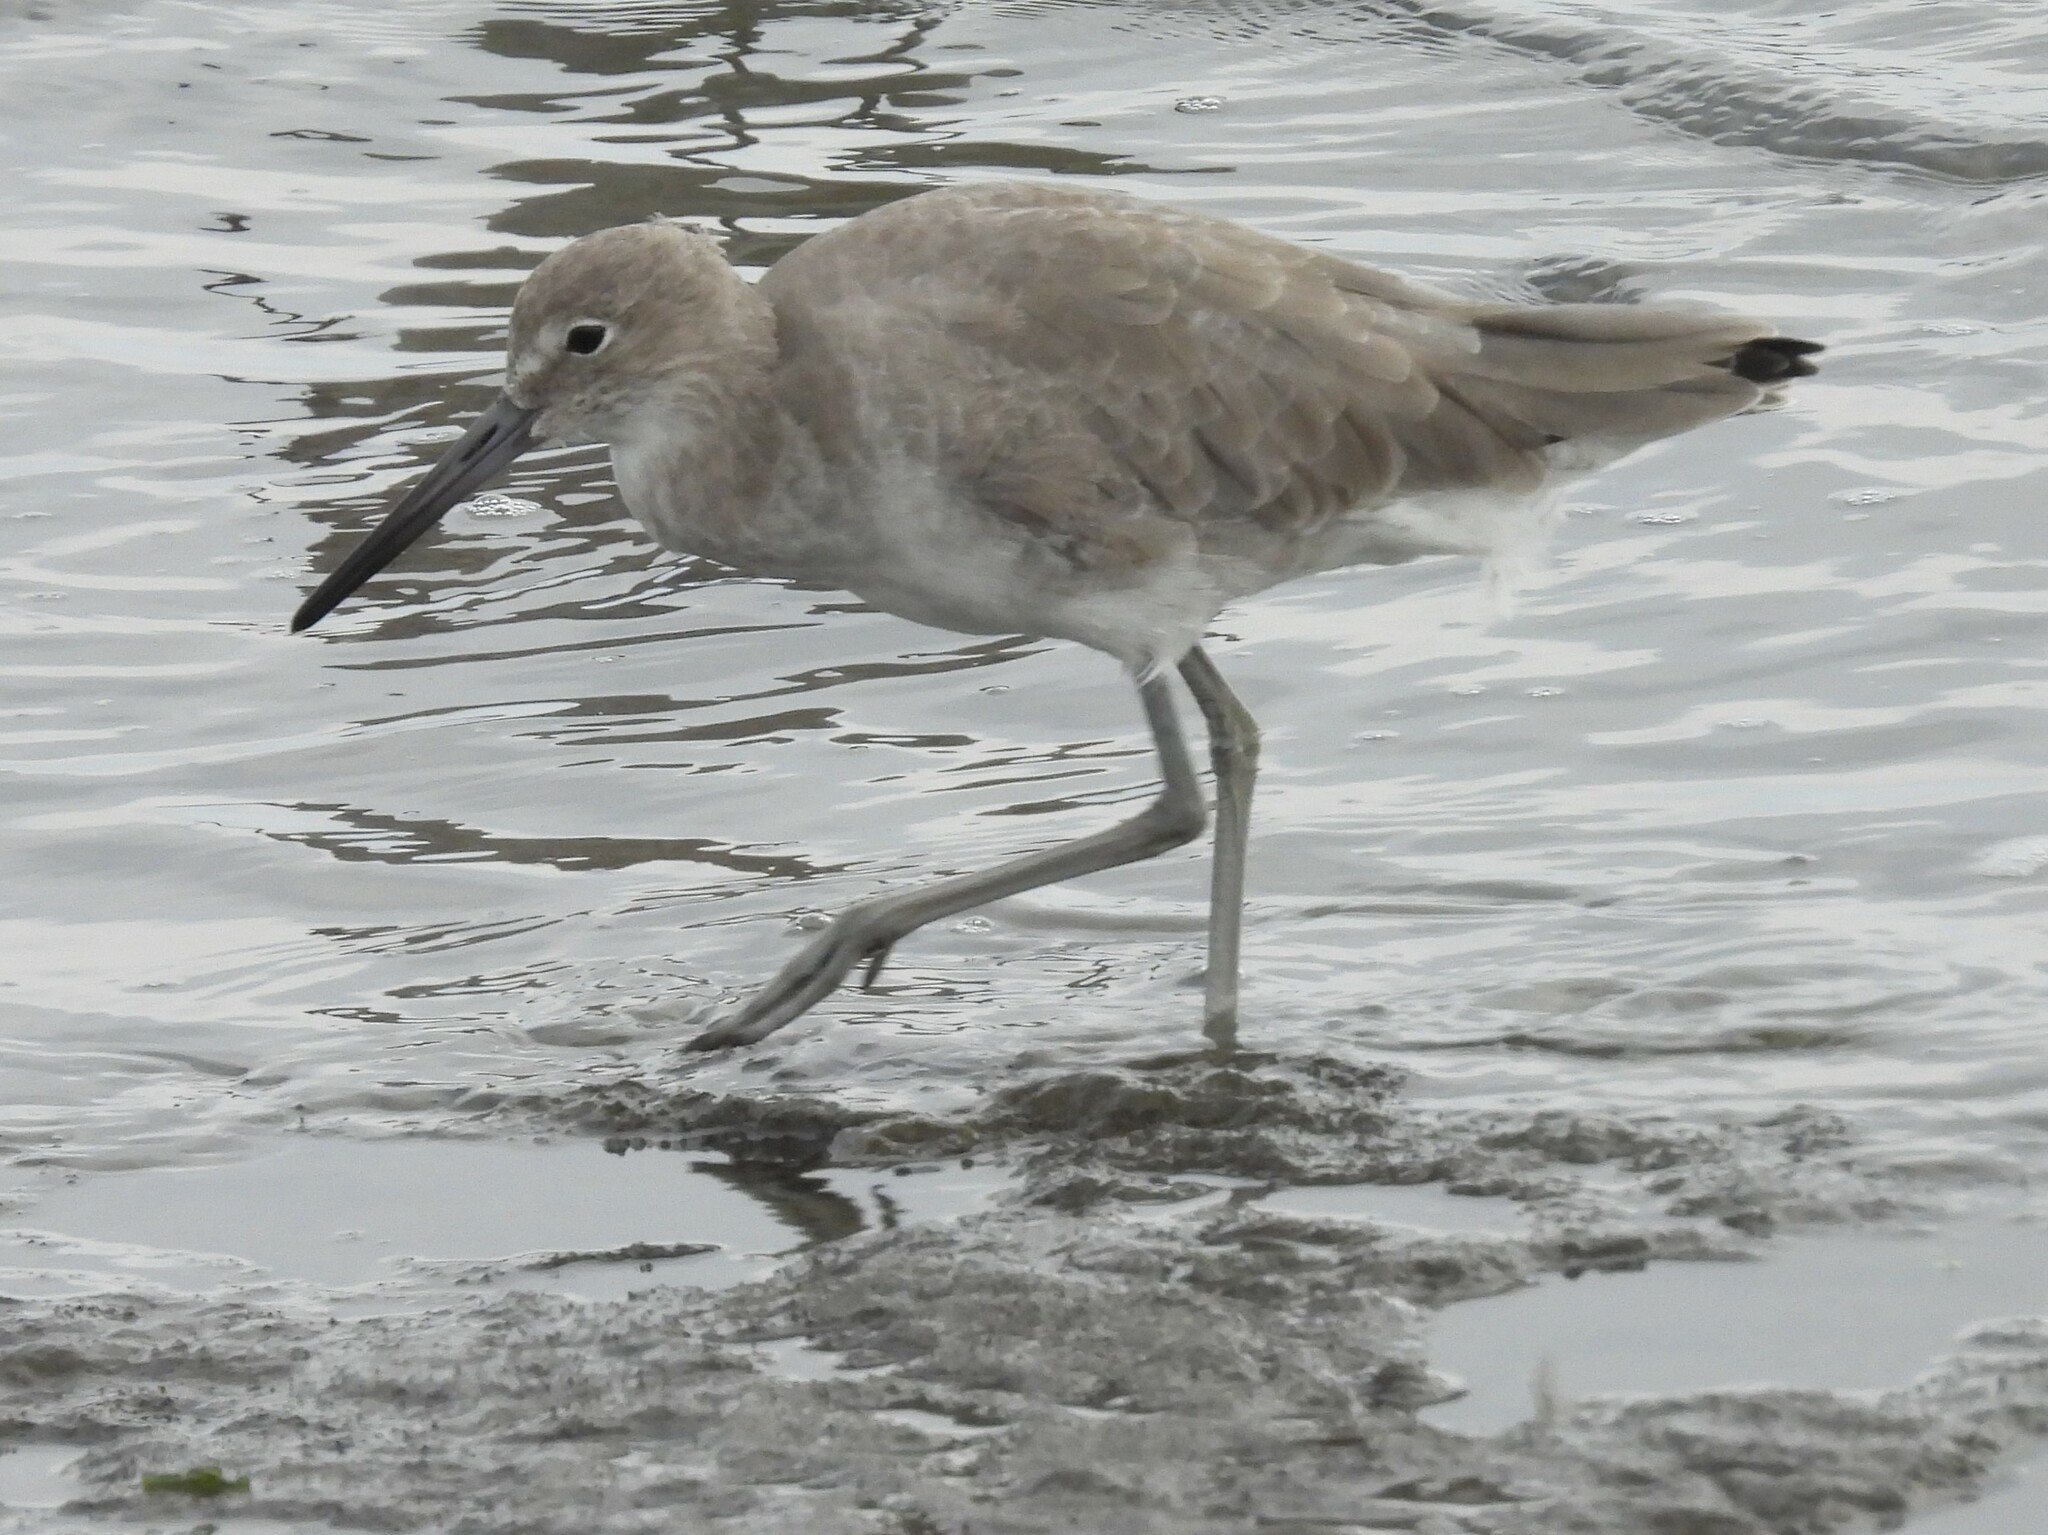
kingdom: Animalia
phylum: Chordata
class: Aves
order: Charadriiformes
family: Scolopacidae
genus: Tringa
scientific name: Tringa semipalmata
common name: Willet
